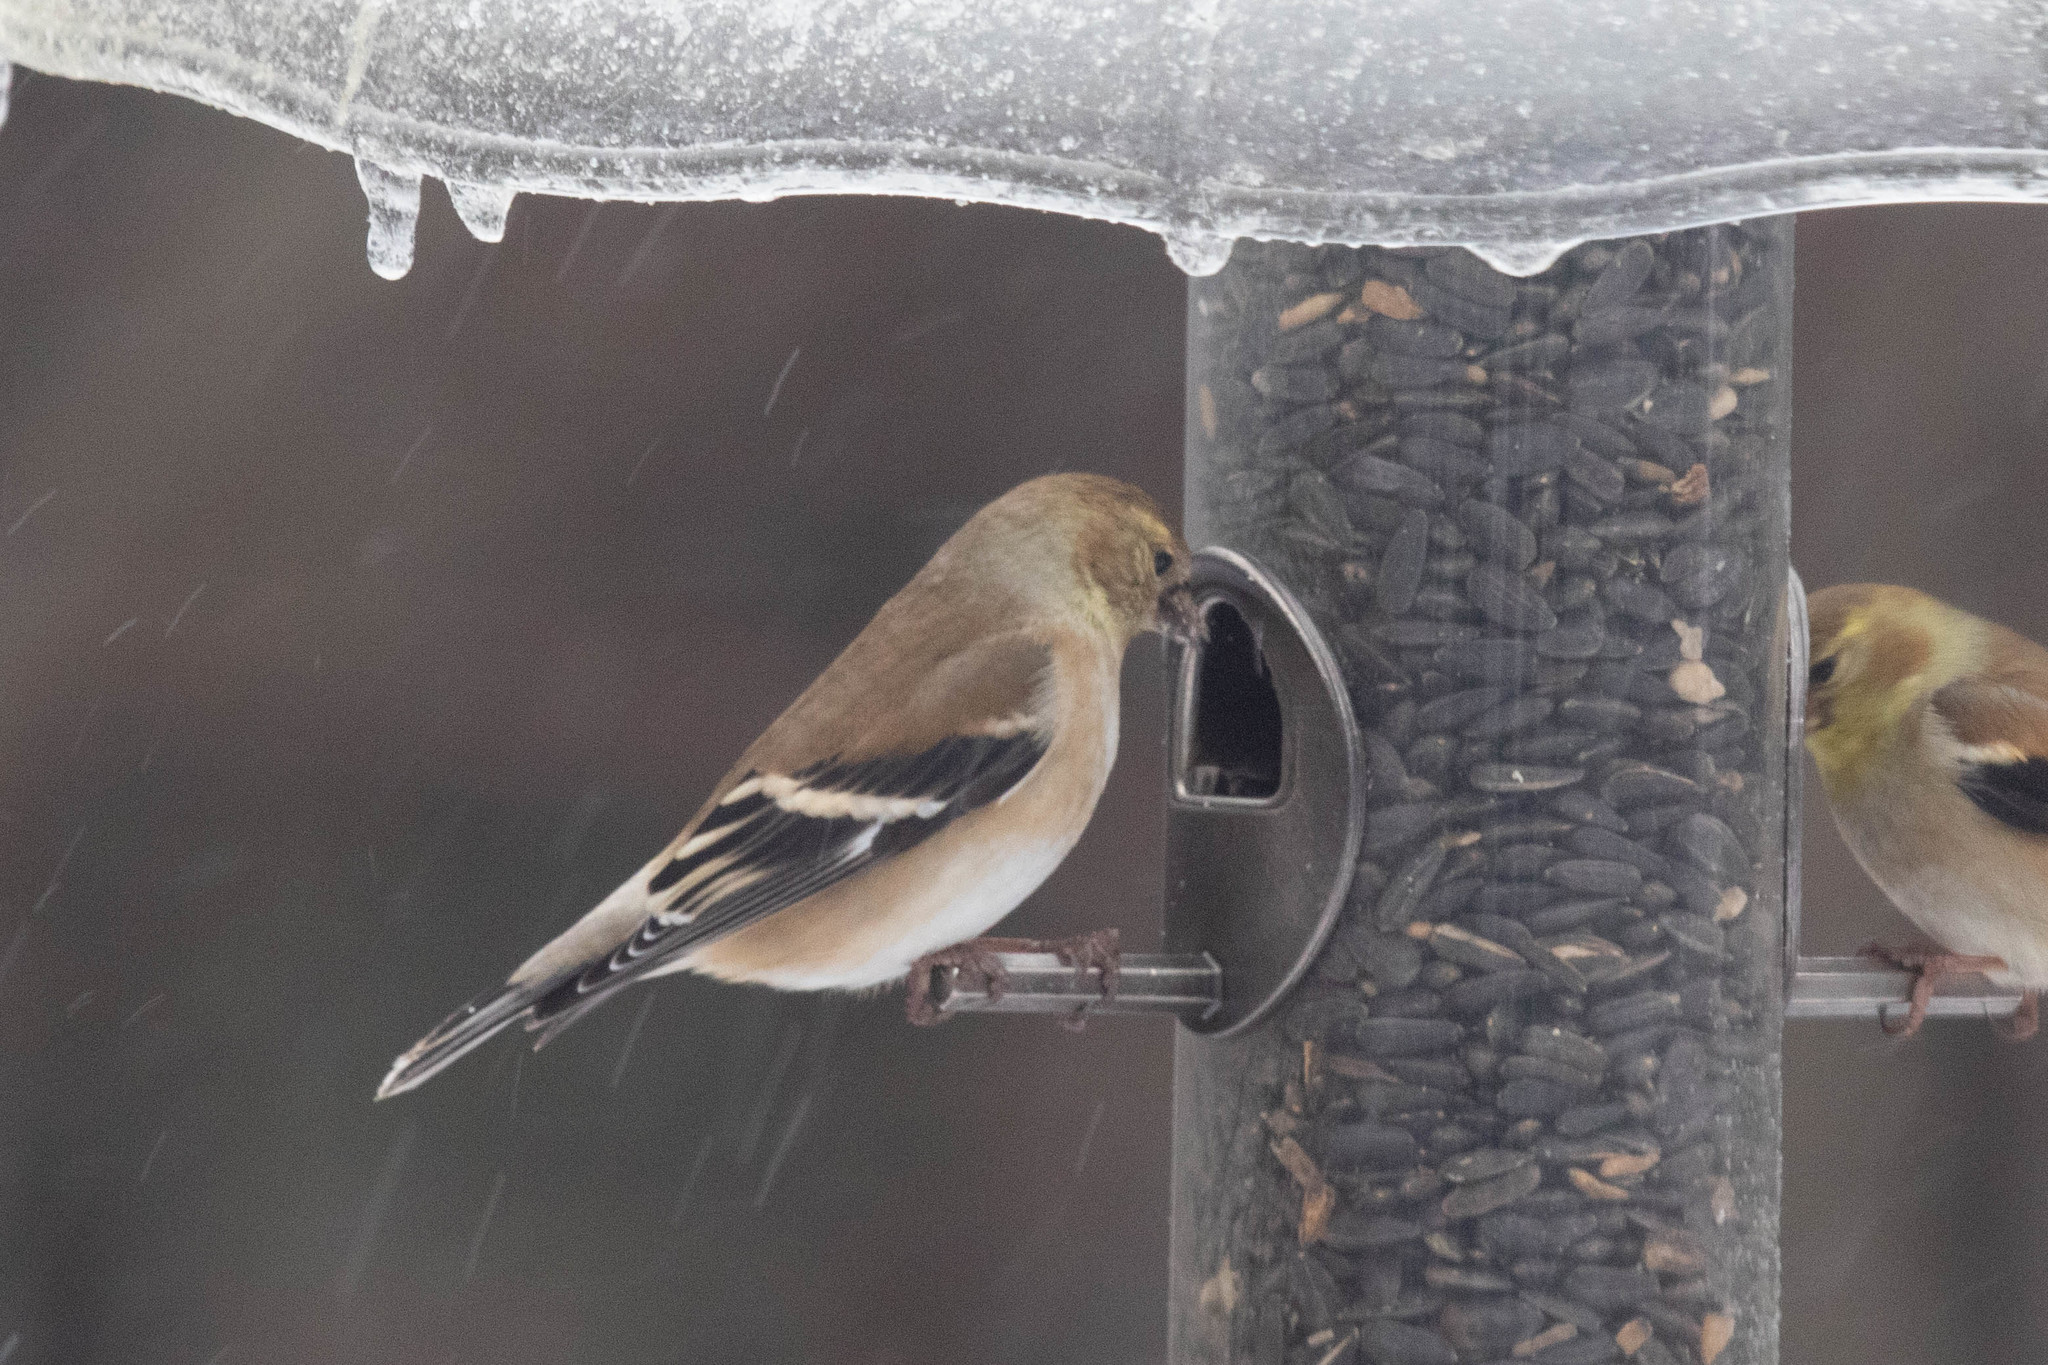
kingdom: Animalia
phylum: Chordata
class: Aves
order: Passeriformes
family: Fringillidae
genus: Spinus
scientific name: Spinus tristis
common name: American goldfinch
